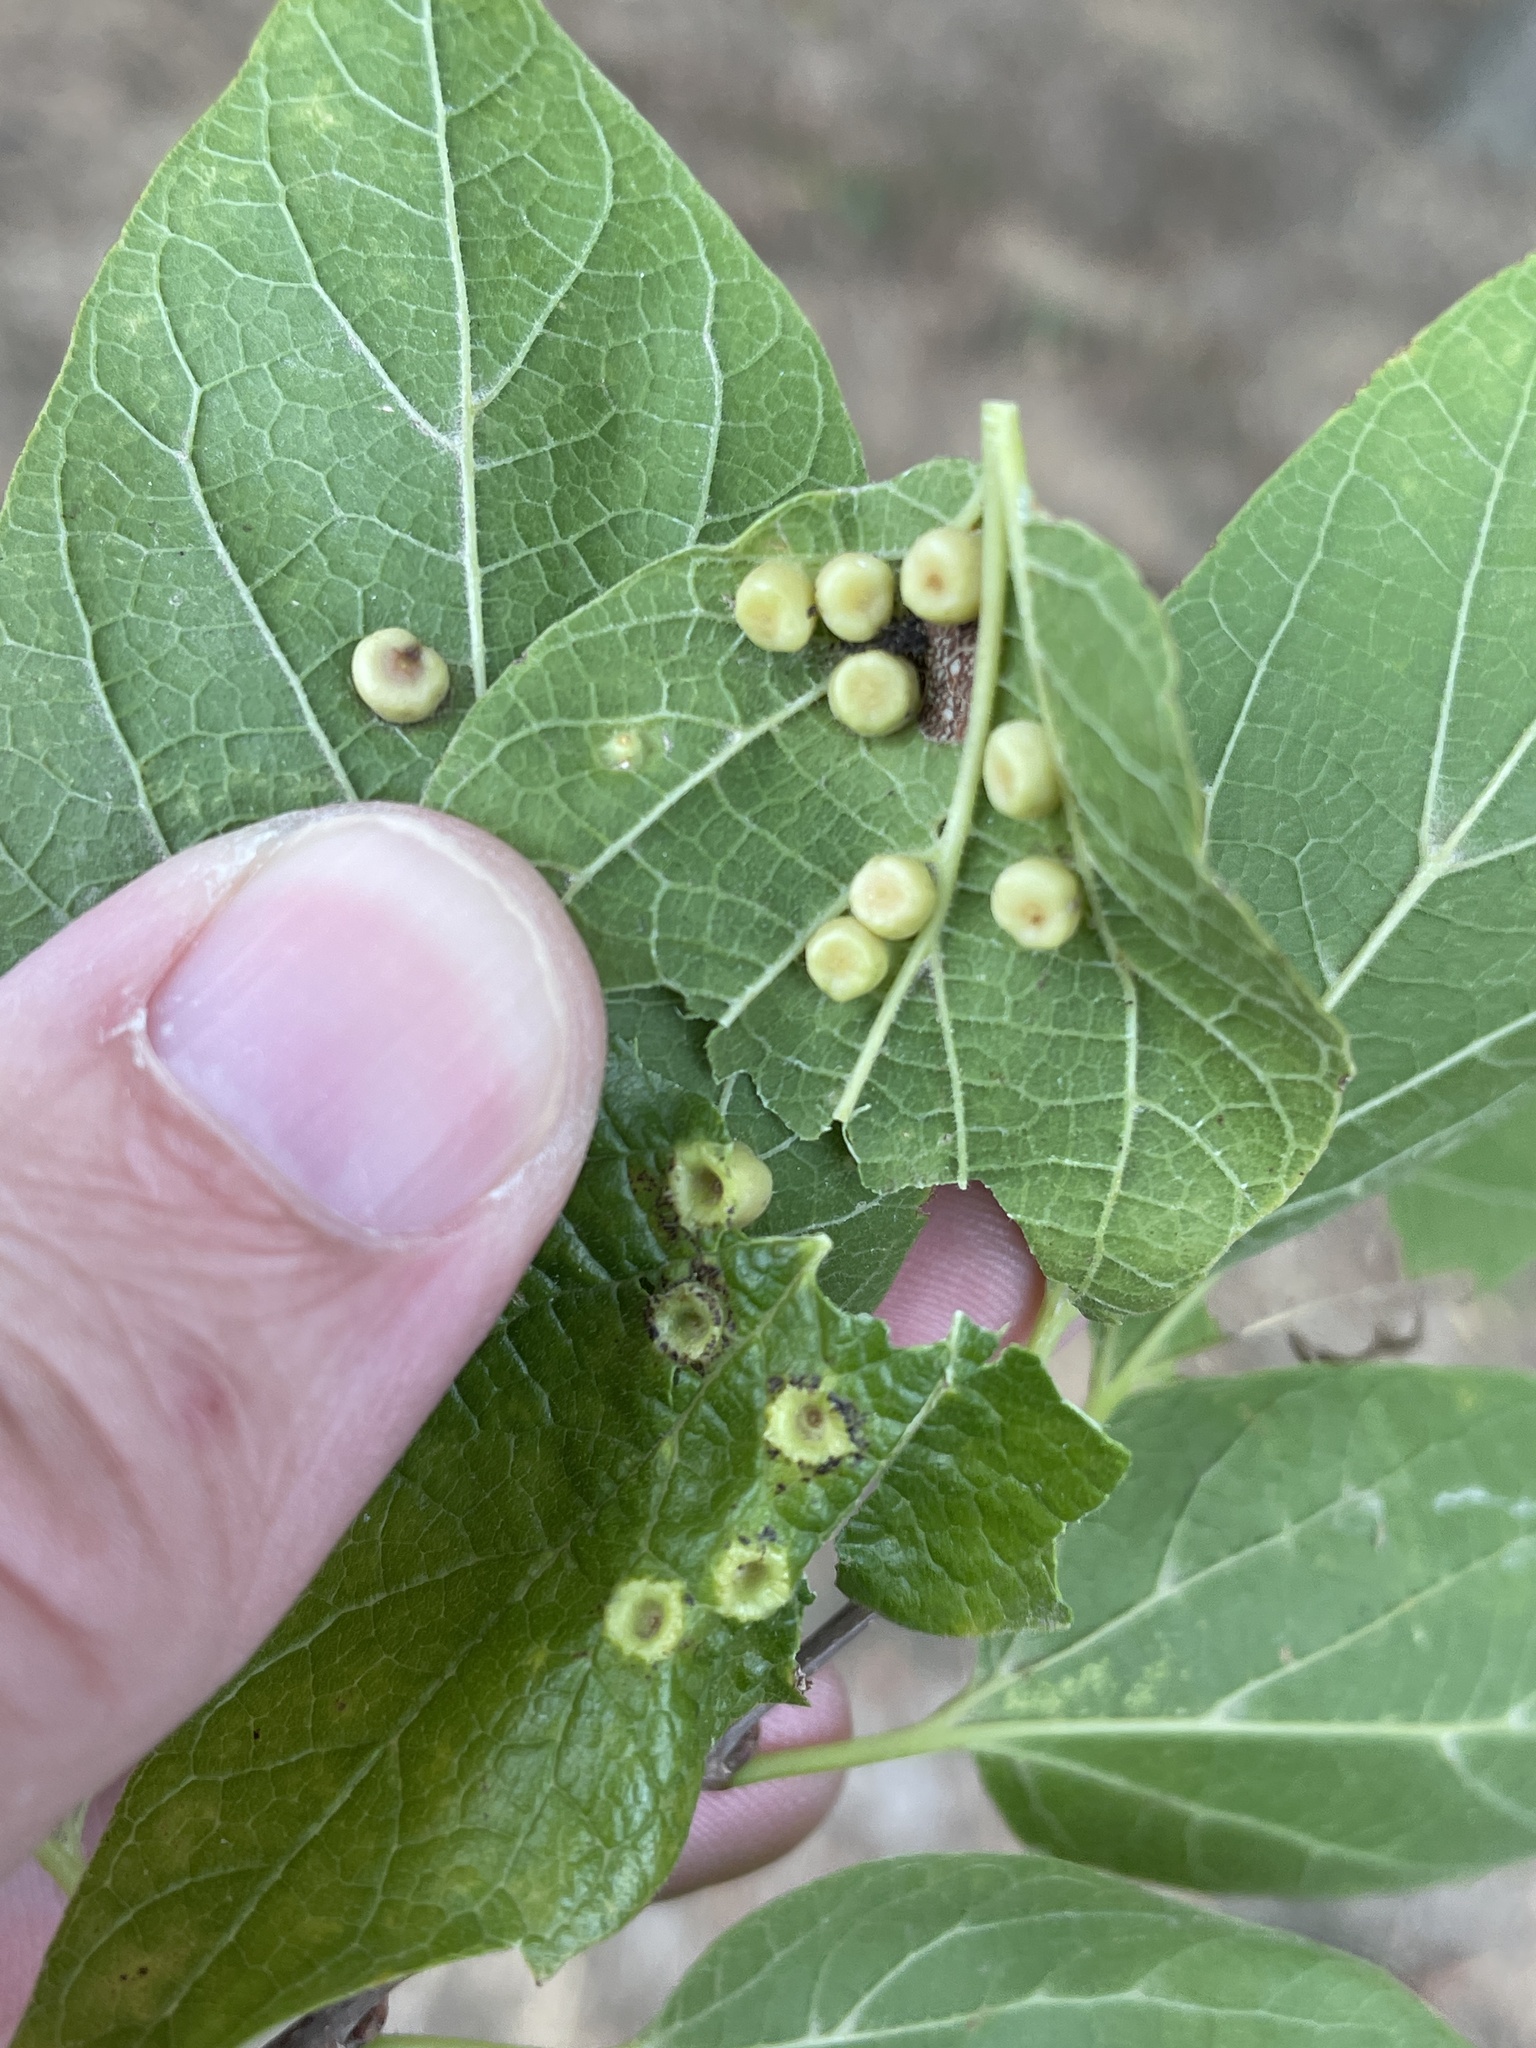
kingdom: Animalia
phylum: Arthropoda
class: Insecta
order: Hemiptera
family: Aphalaridae
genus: Pachypsylla
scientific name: Pachypsylla celtidismamma
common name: Hackberry nipplegall psyllid
